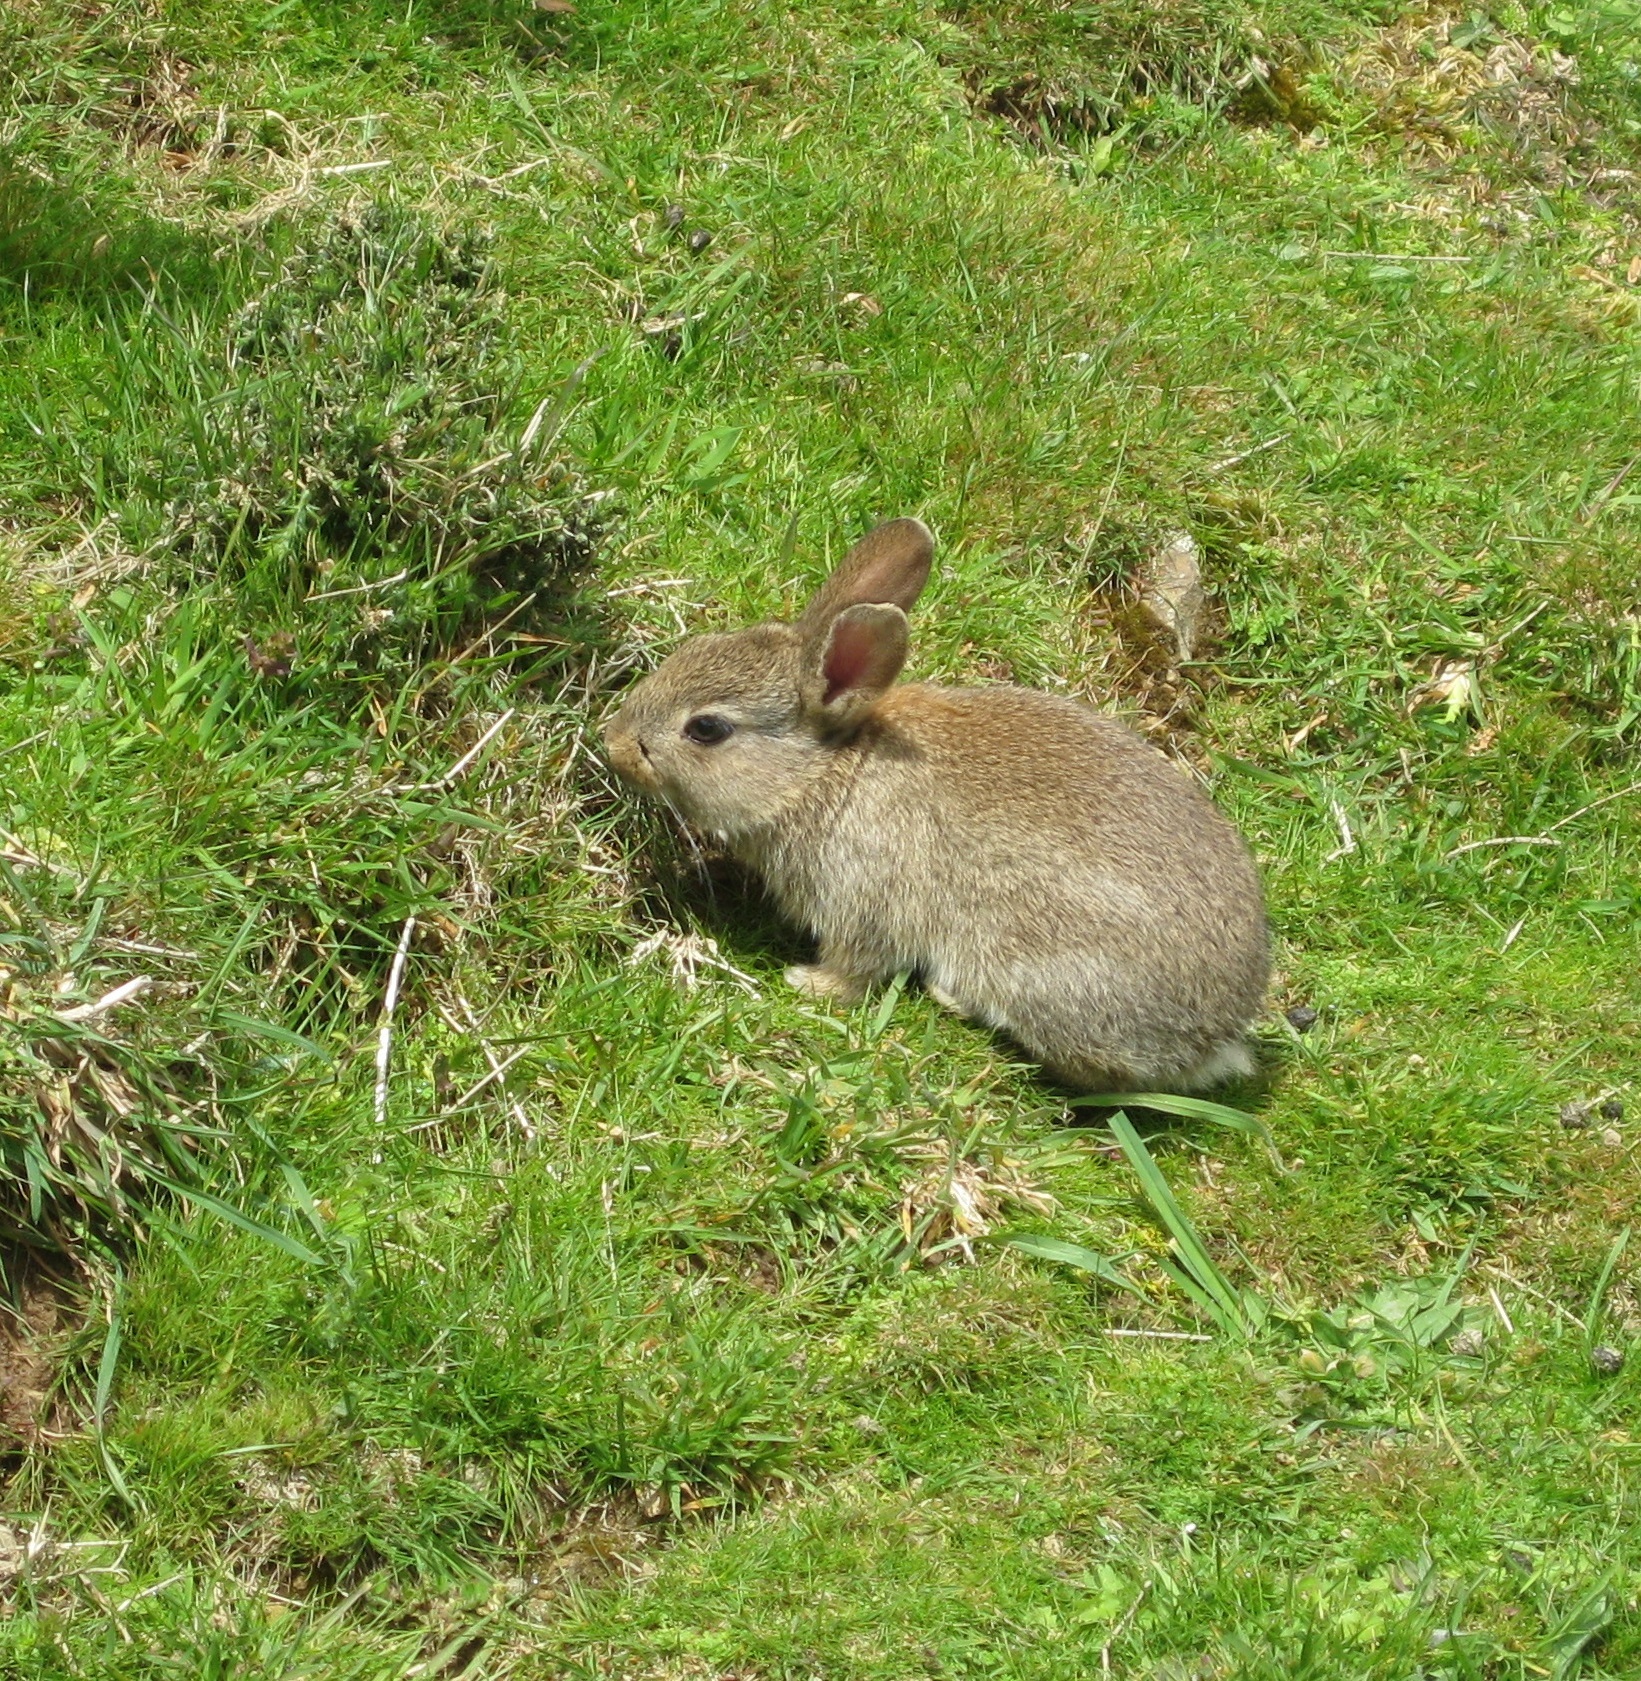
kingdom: Animalia
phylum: Chordata
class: Mammalia
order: Lagomorpha
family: Leporidae
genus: Oryctolagus
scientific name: Oryctolagus cuniculus
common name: European rabbit
